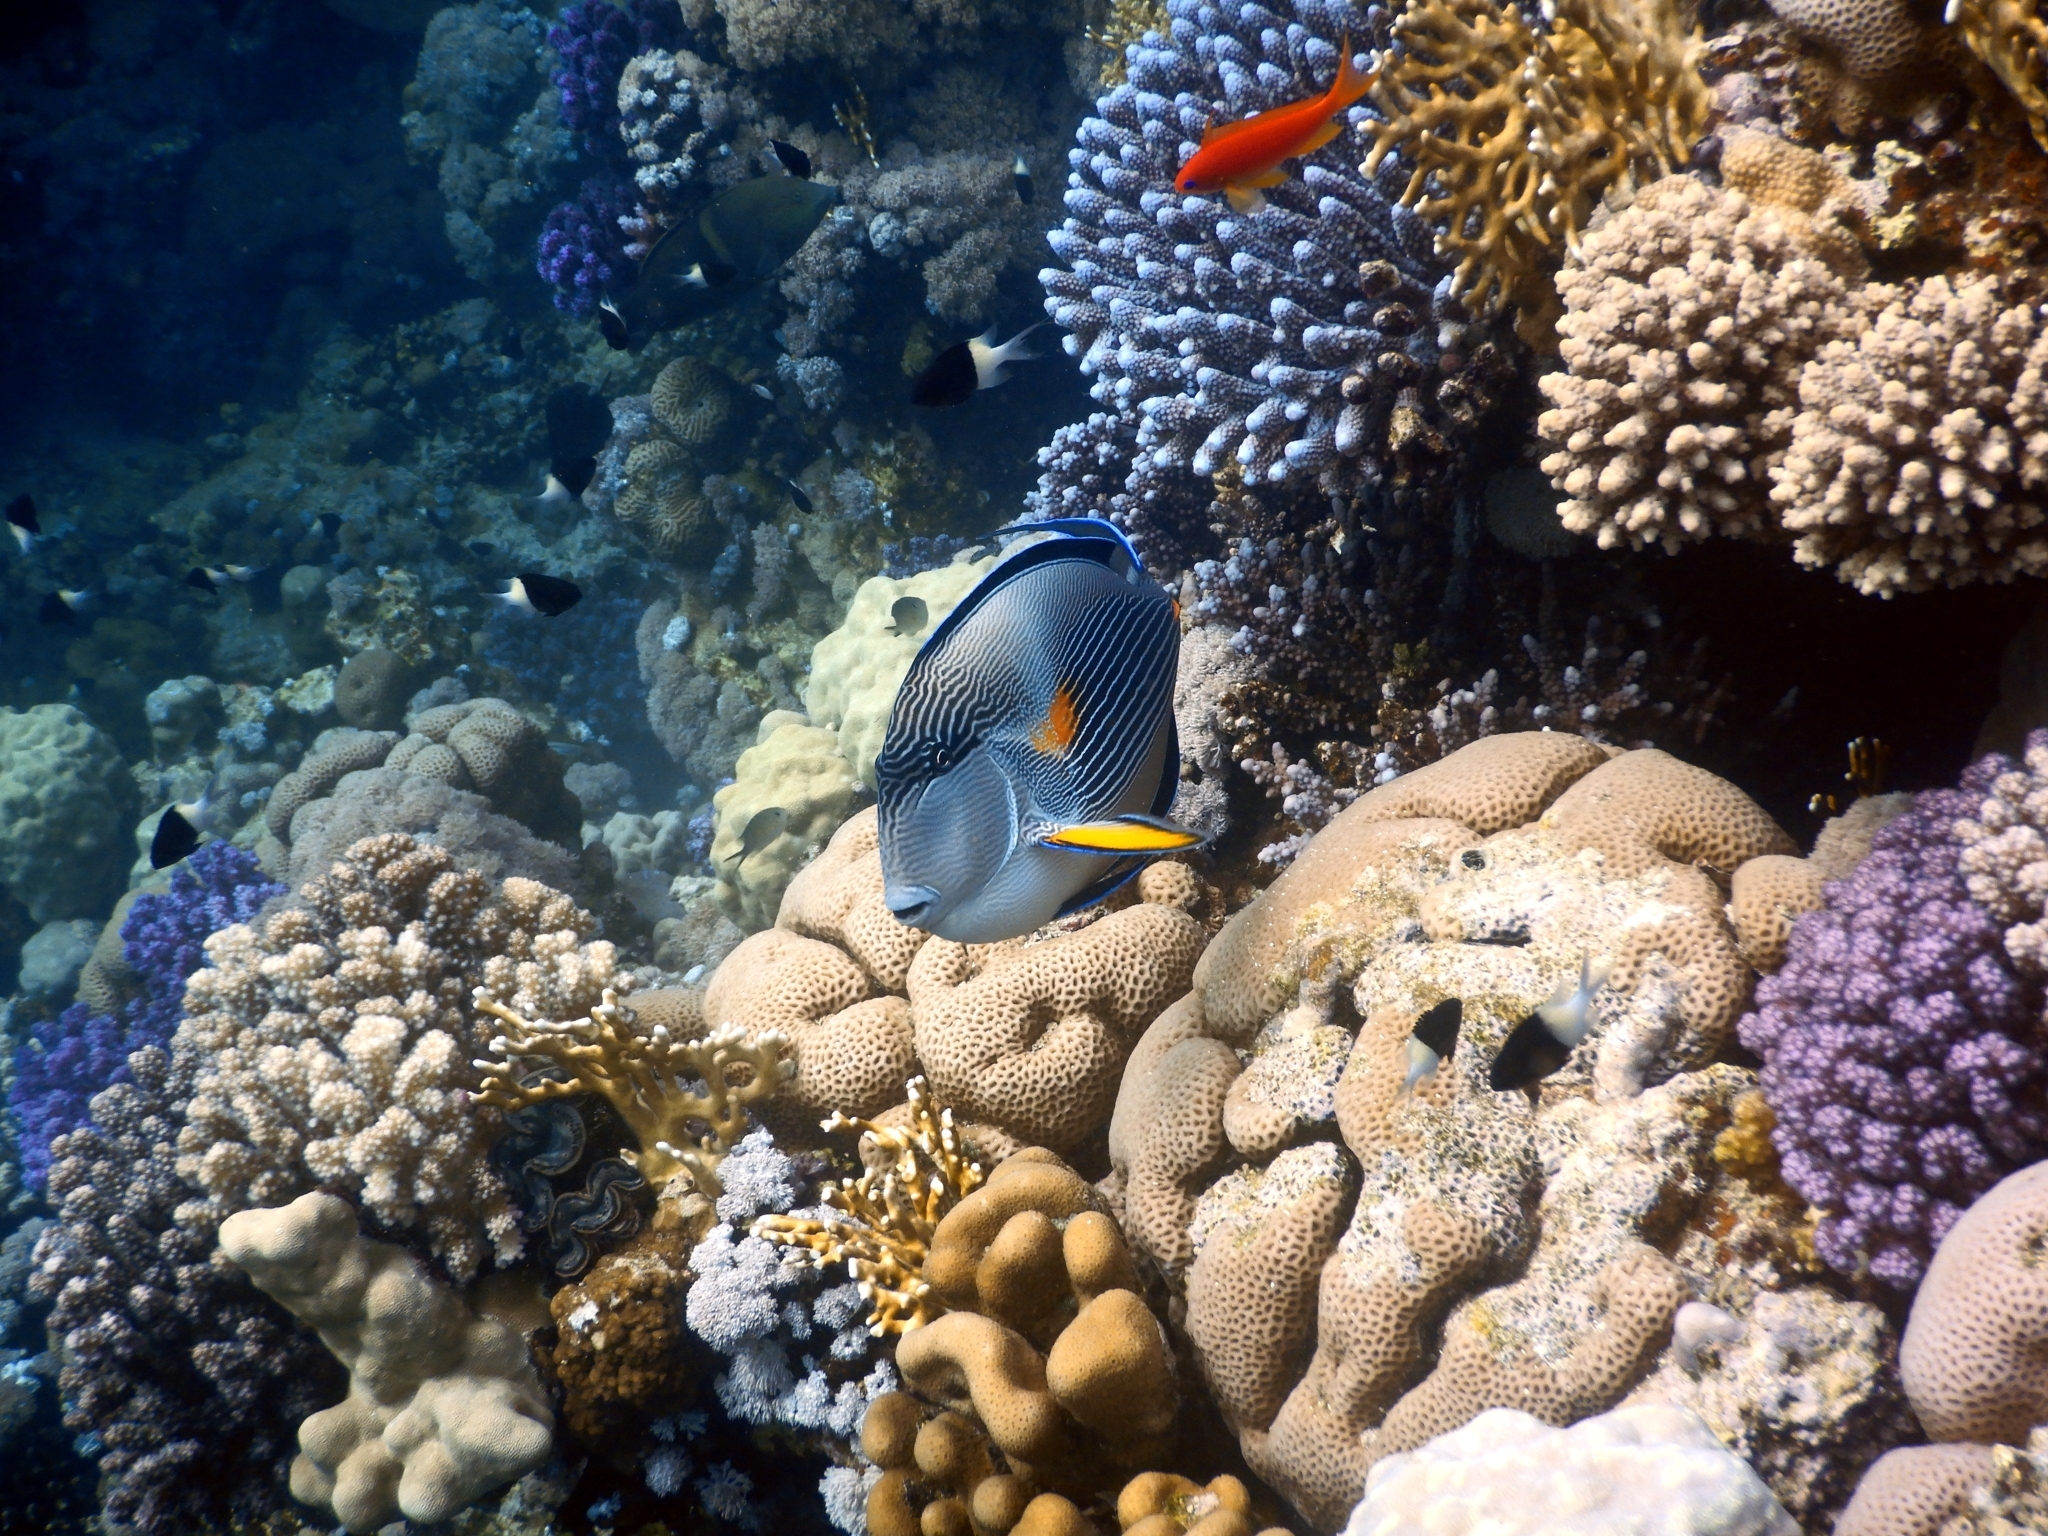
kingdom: Animalia
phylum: Chordata
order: Perciformes
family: Acanthuridae
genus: Acanthurus
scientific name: Acanthurus sohal
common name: Red sea surgeonfish
